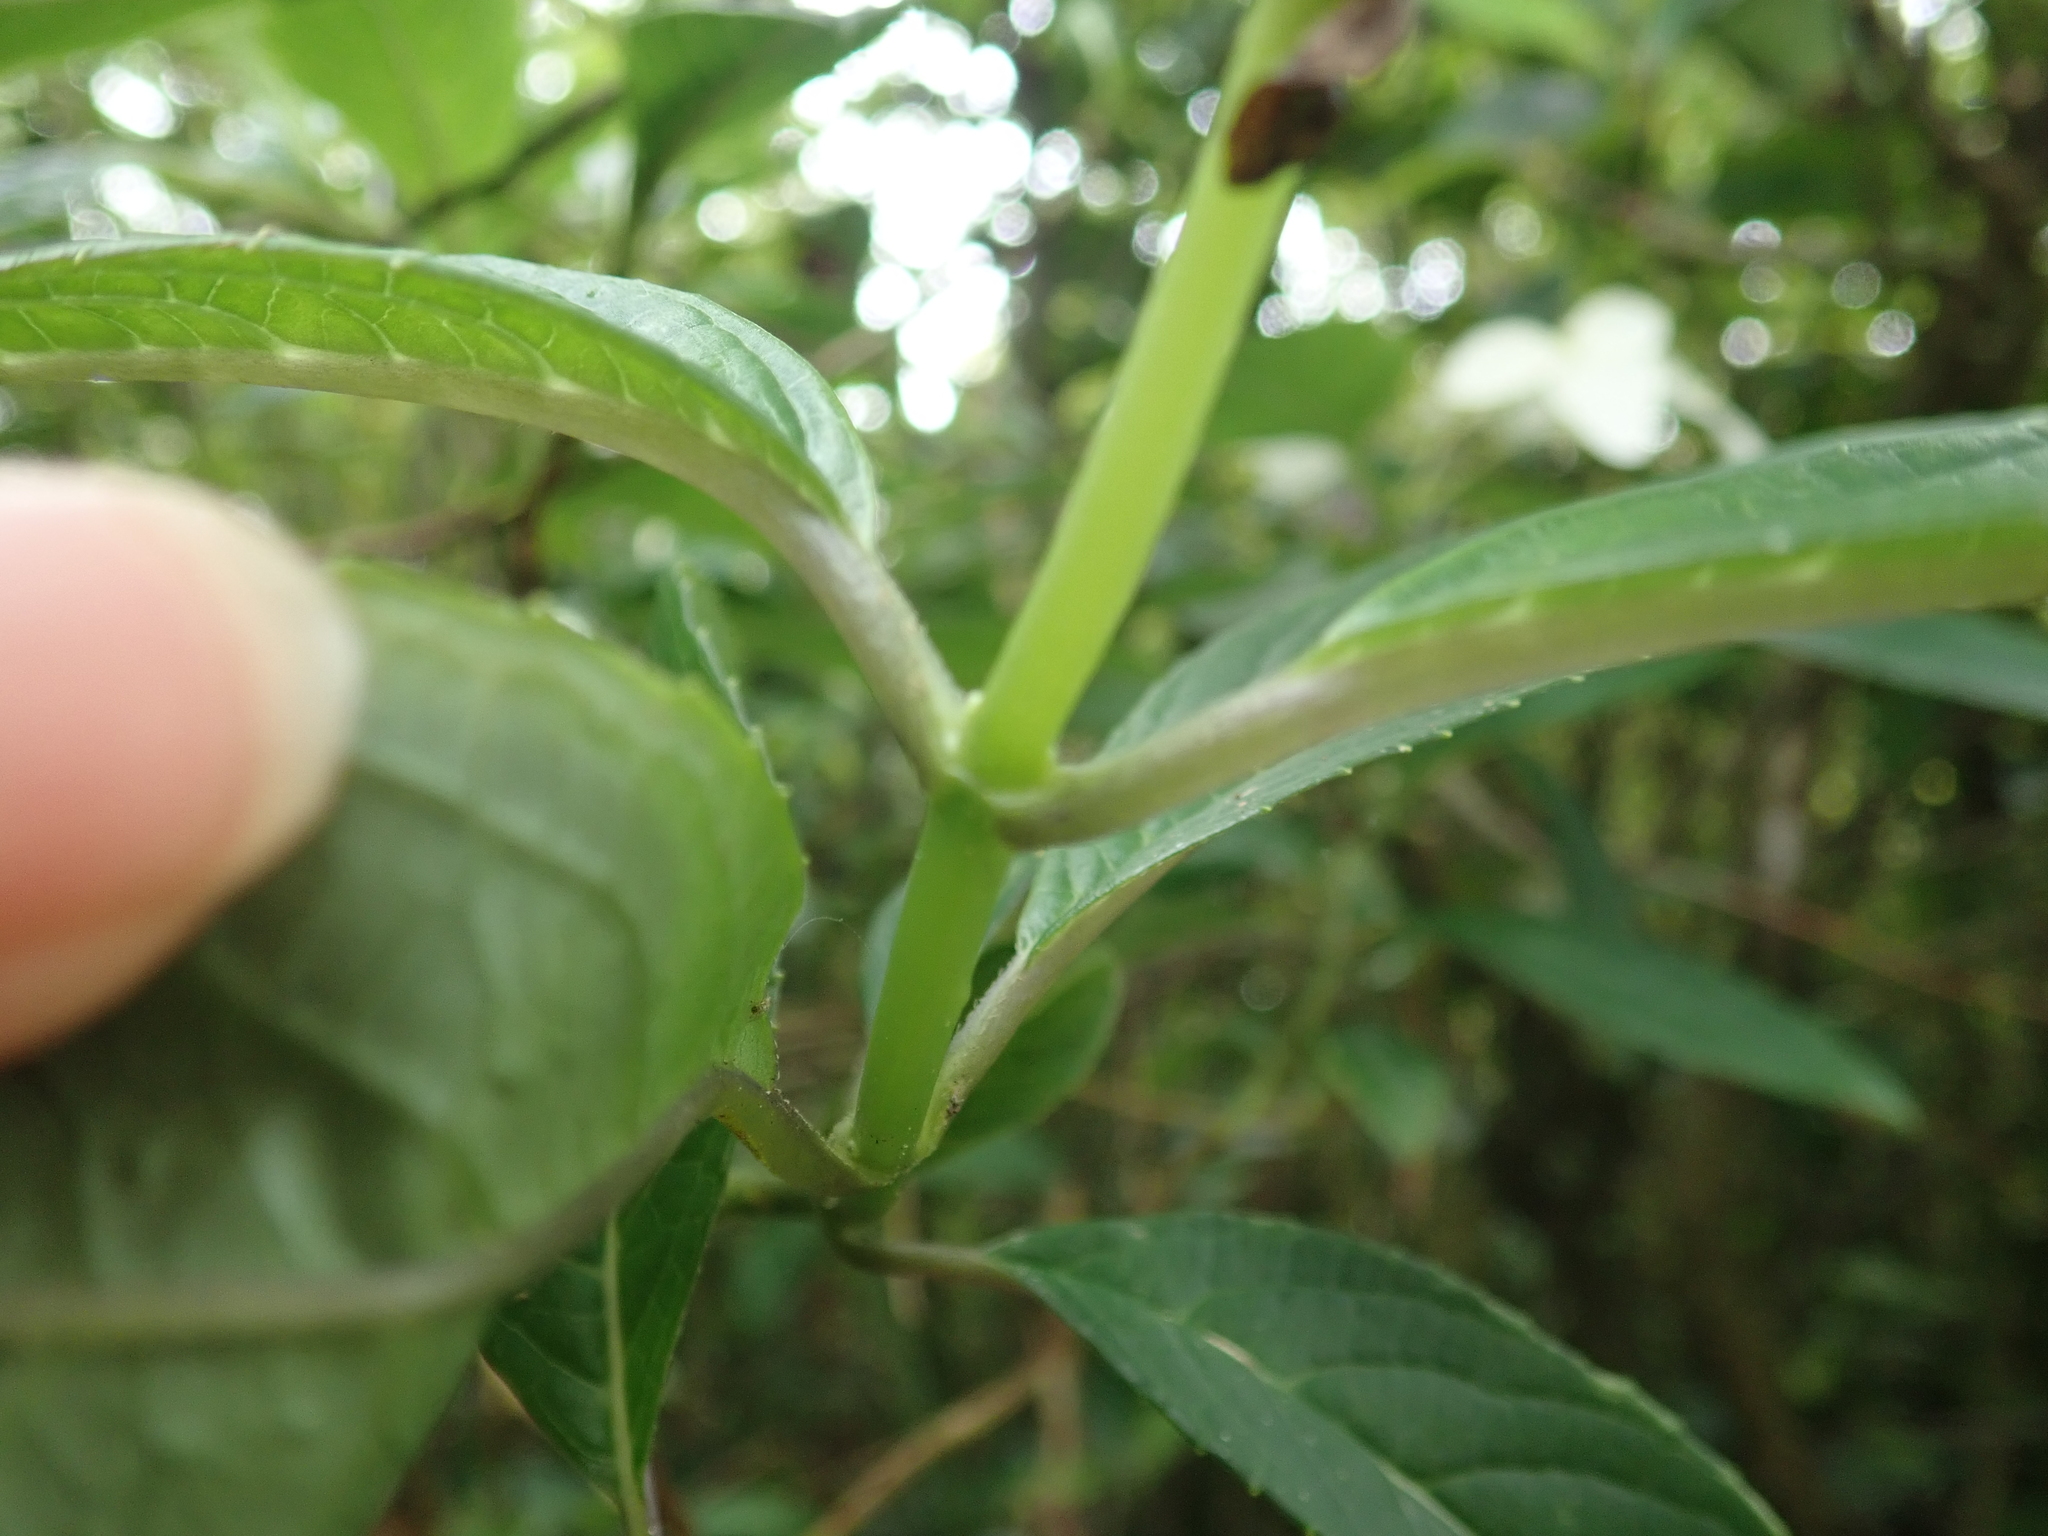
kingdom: Plantae
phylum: Tracheophyta
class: Magnoliopsida
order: Cornales
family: Hydrangeaceae
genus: Hydrangea
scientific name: Hydrangea chinensis
